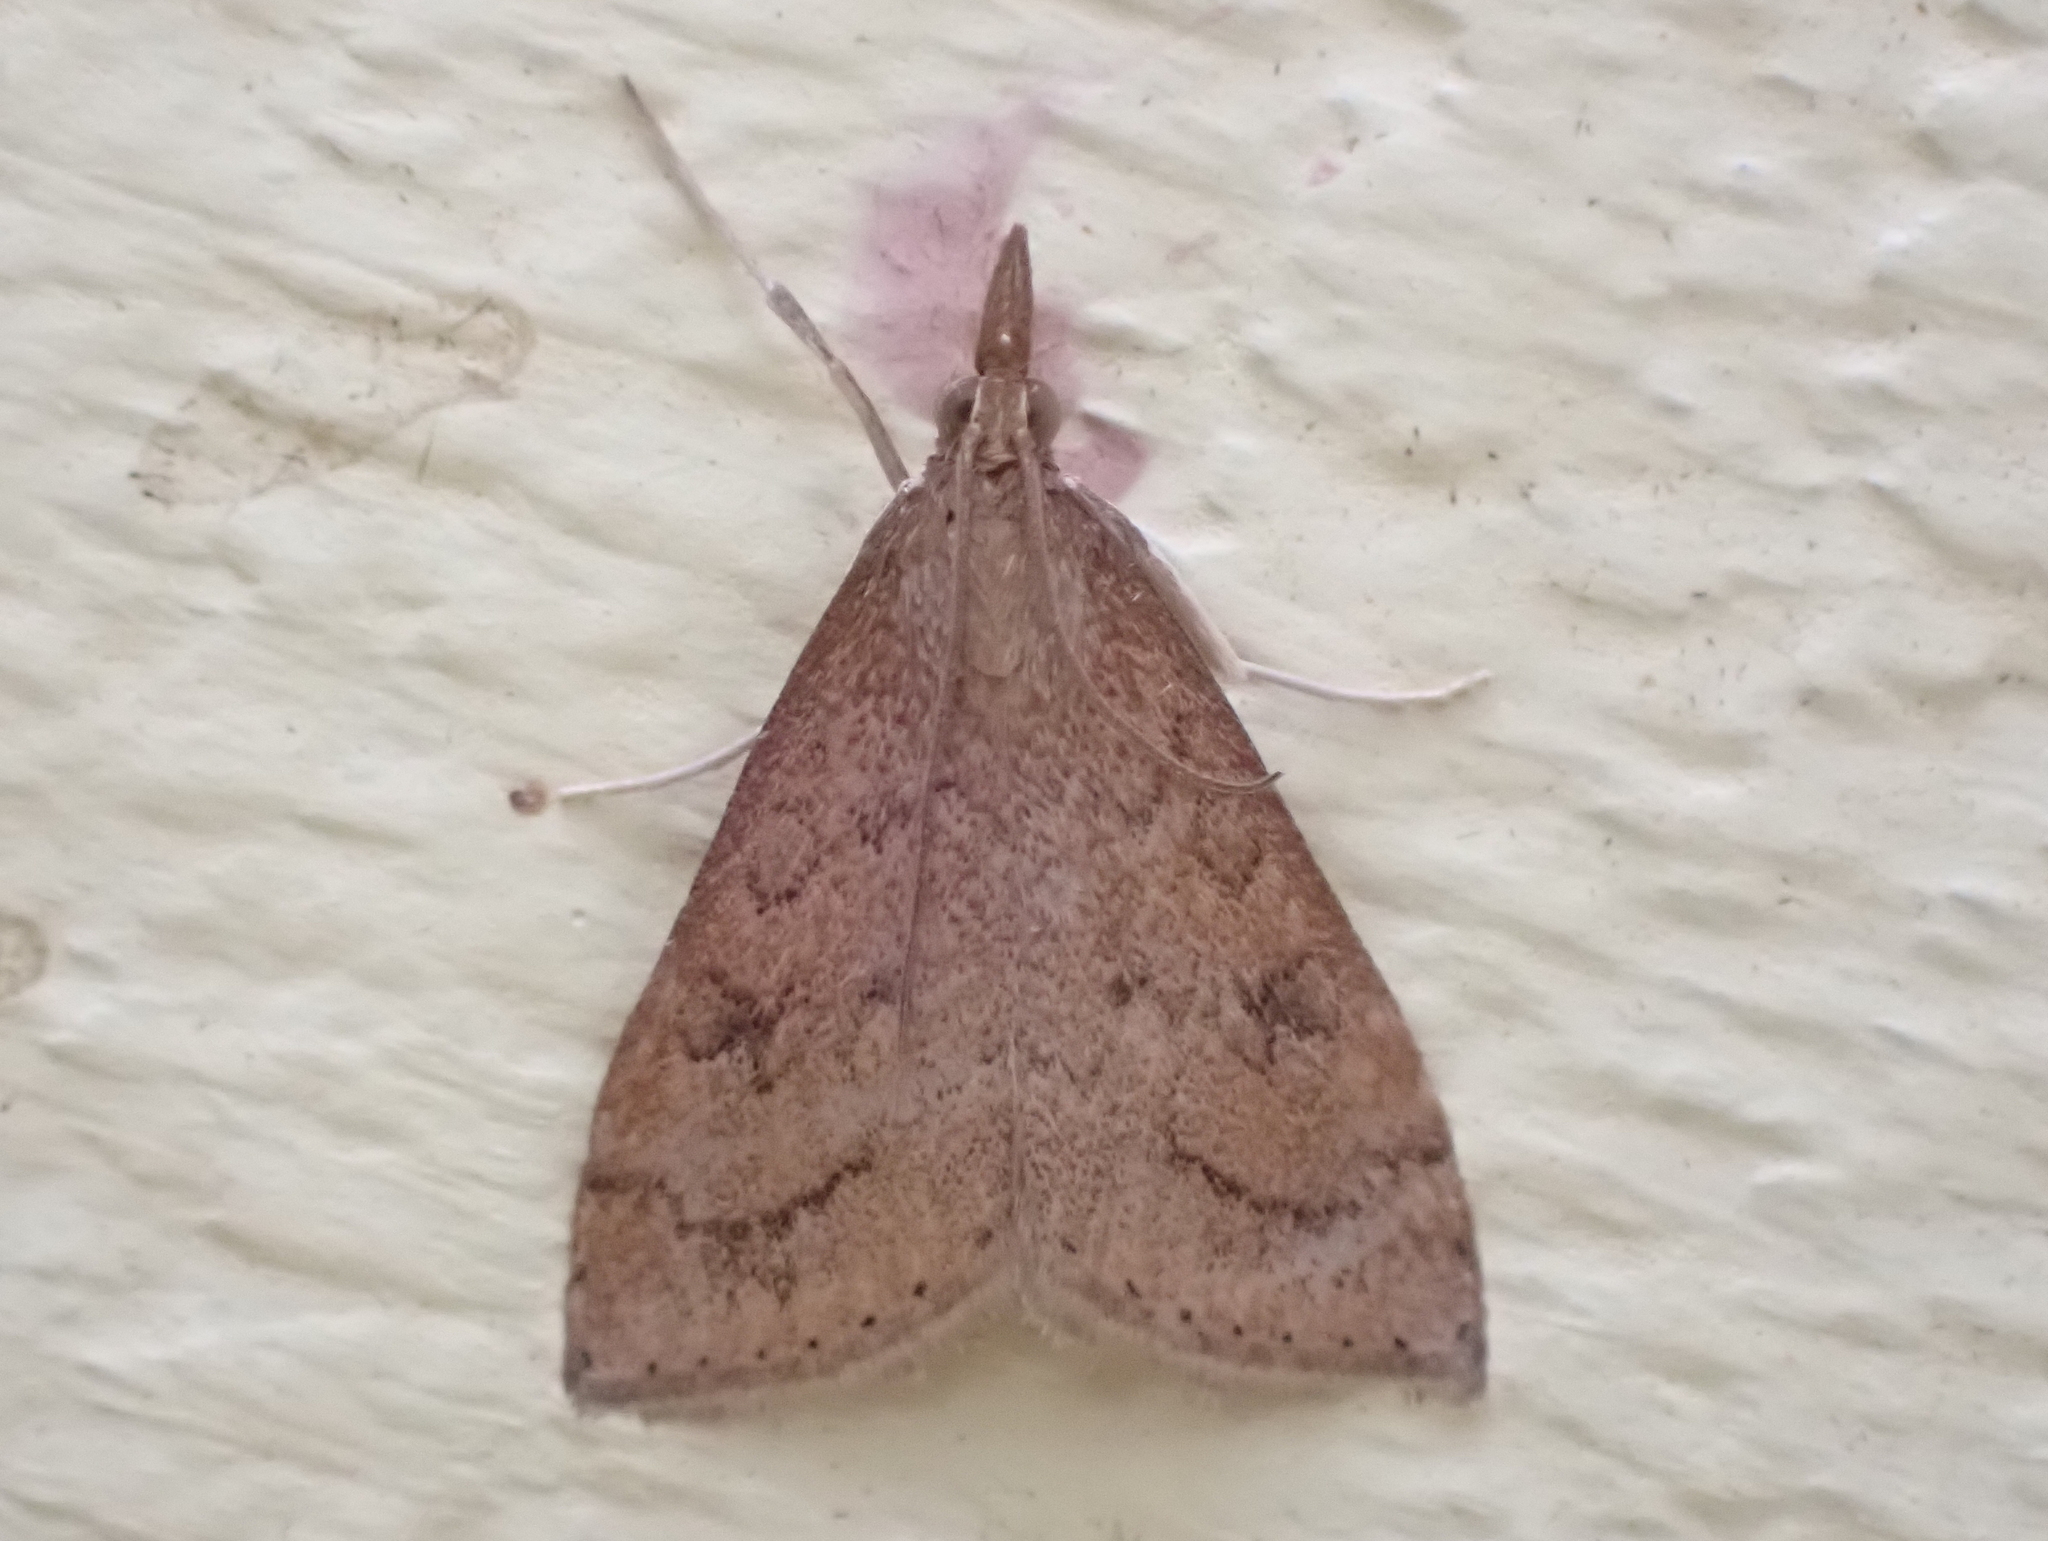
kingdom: Animalia
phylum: Arthropoda
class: Insecta
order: Lepidoptera
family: Crambidae
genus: Udea
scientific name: Udea rubigalis
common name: Celery leaftier moth
